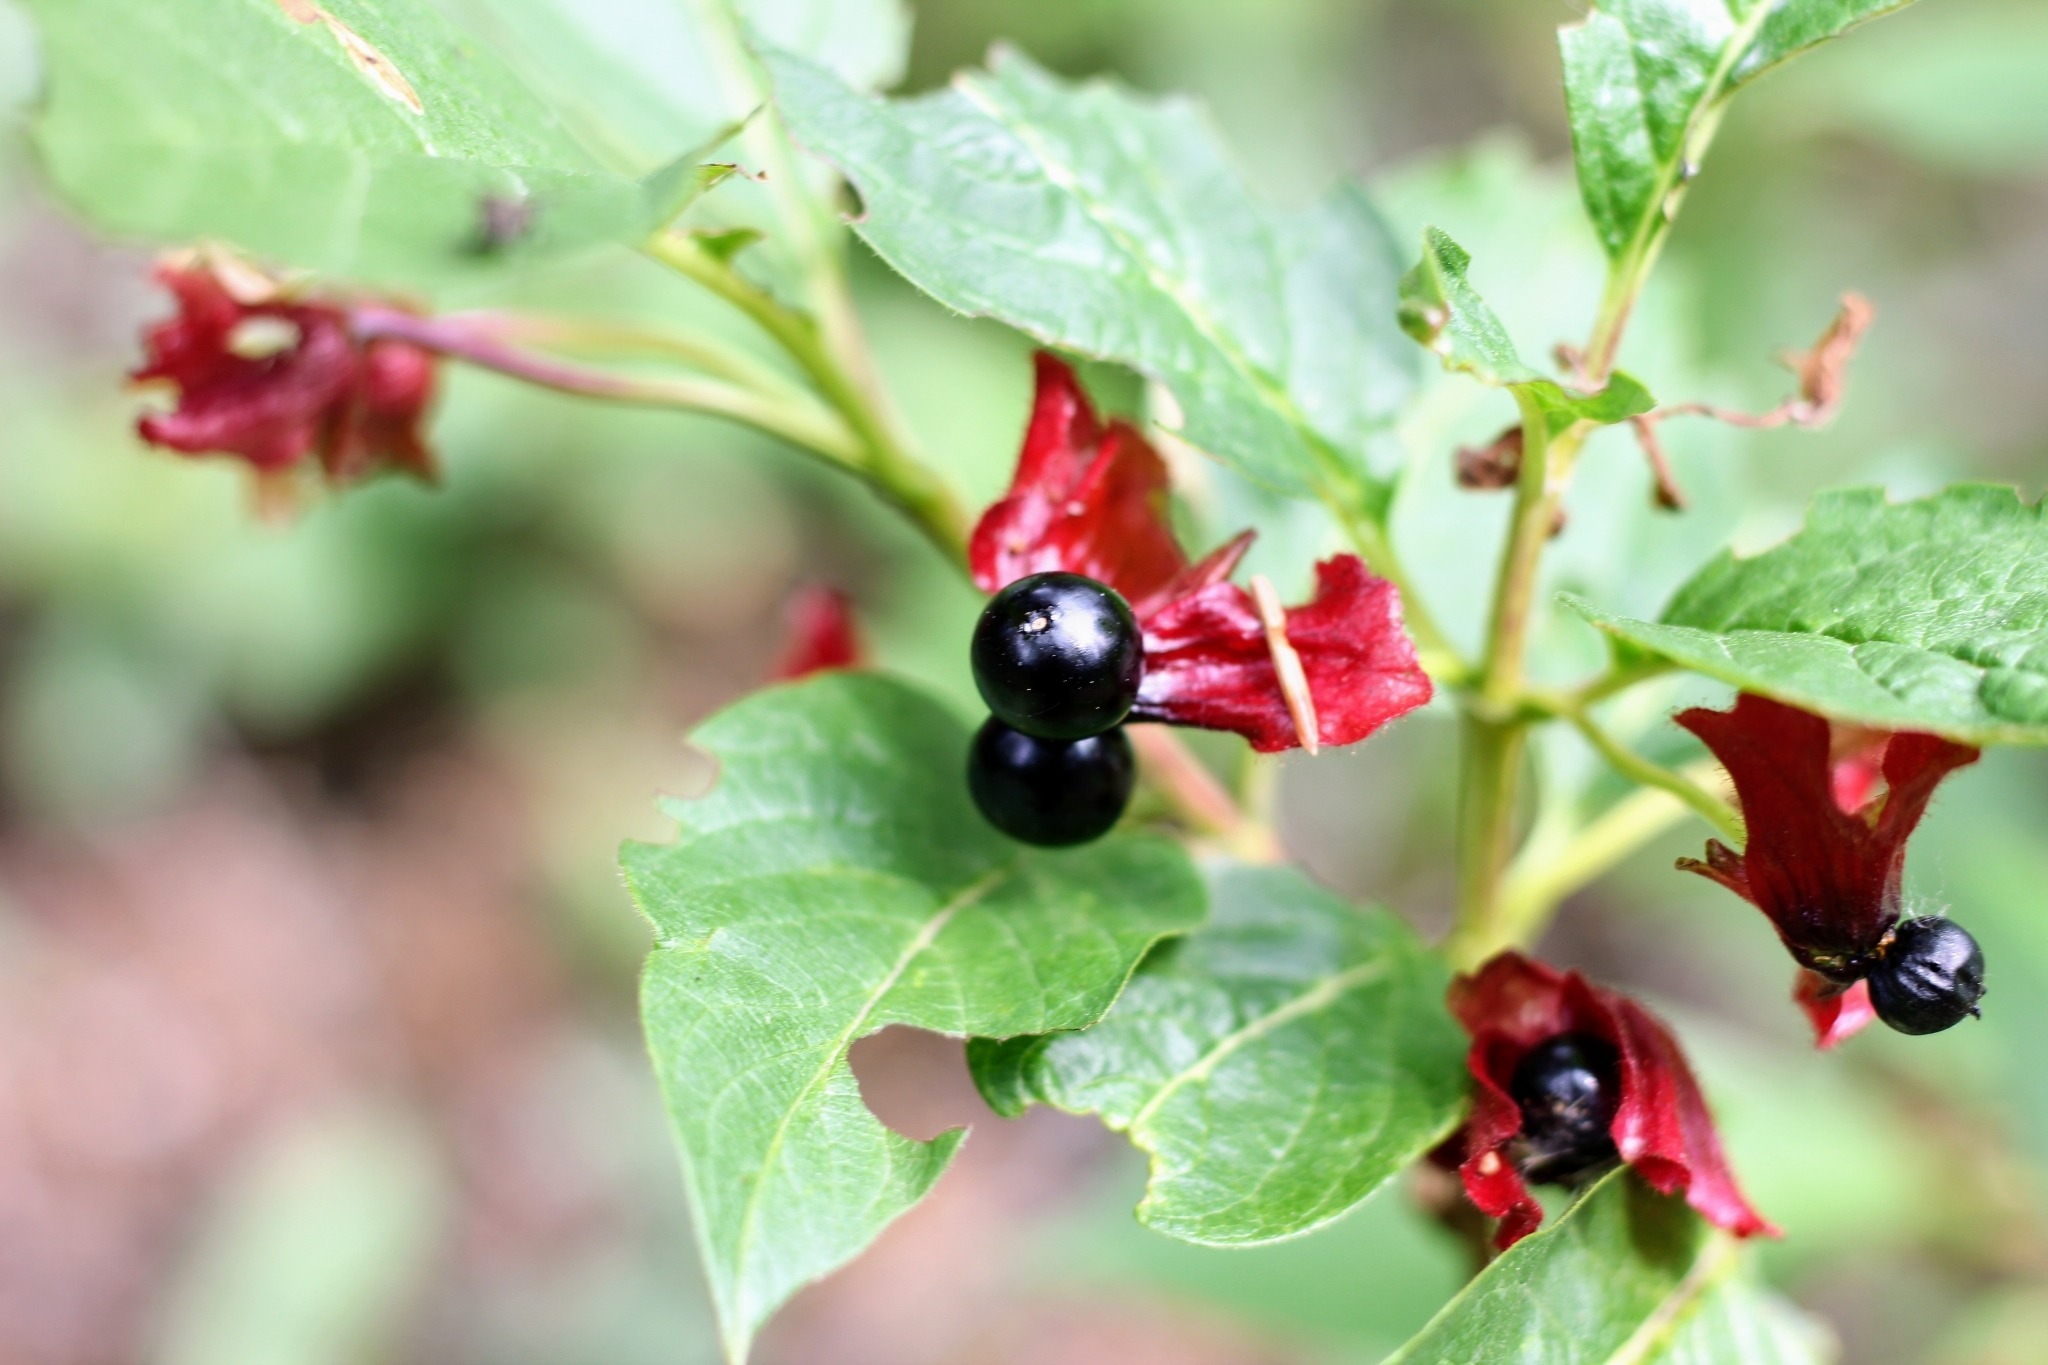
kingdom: Plantae
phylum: Tracheophyta
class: Magnoliopsida
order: Dipsacales
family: Caprifoliaceae
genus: Lonicera
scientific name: Lonicera involucrata
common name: Californian honeysuckle
